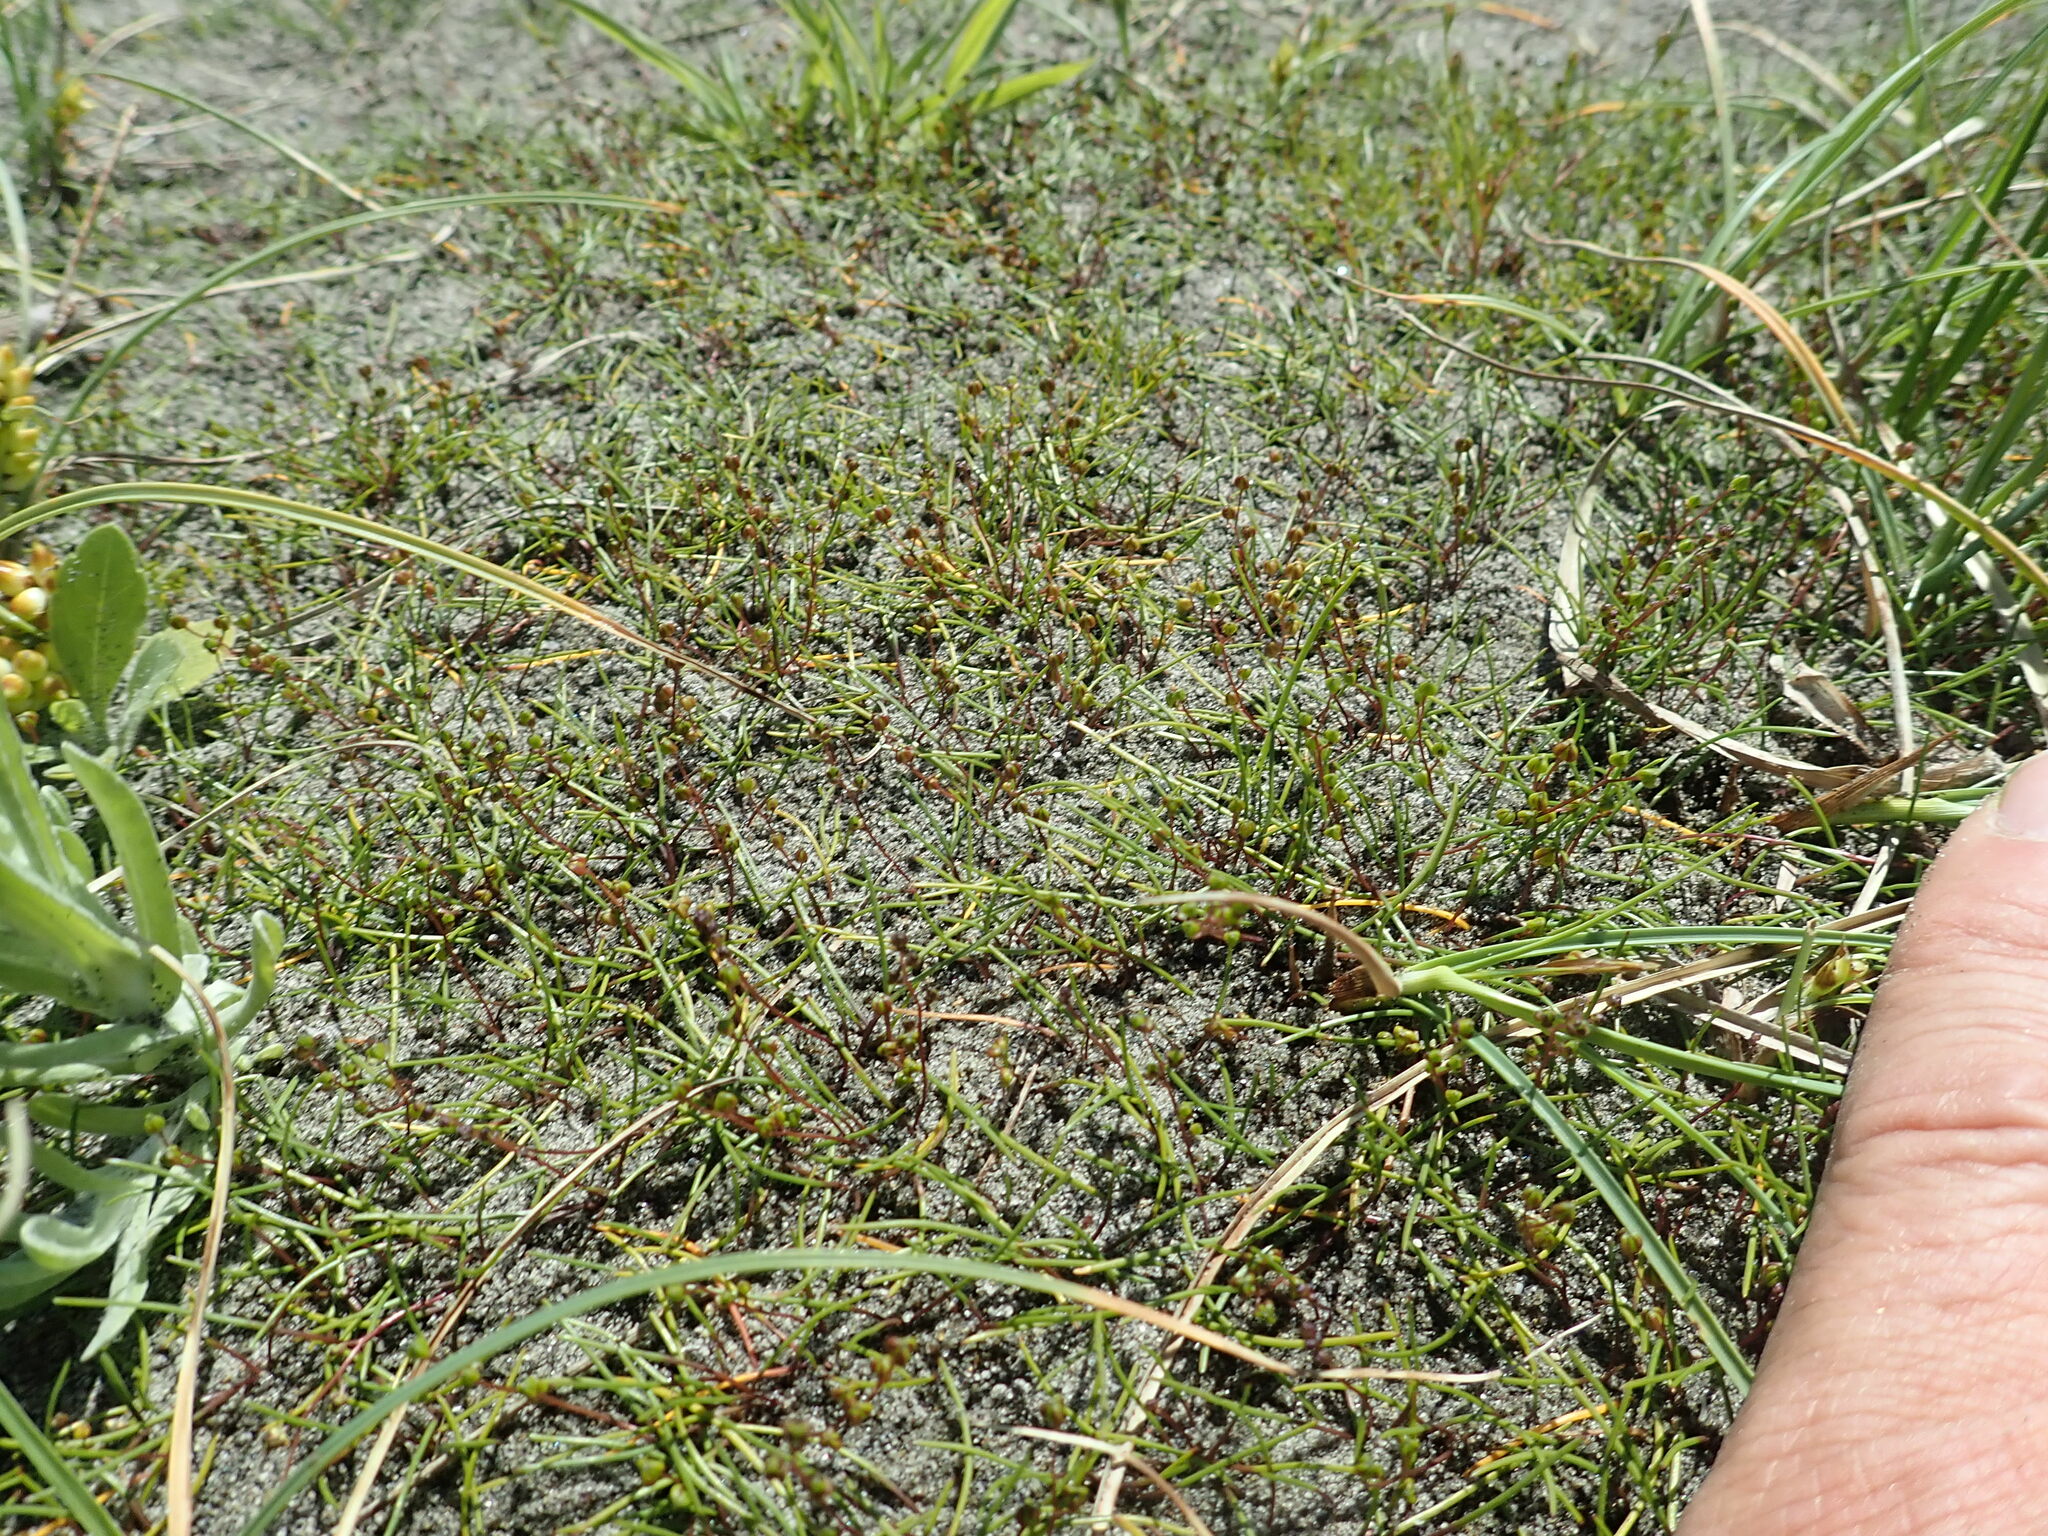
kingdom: Plantae
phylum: Tracheophyta
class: Liliopsida
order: Alismatales
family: Juncaginaceae
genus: Triglochin
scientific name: Triglochin striata
